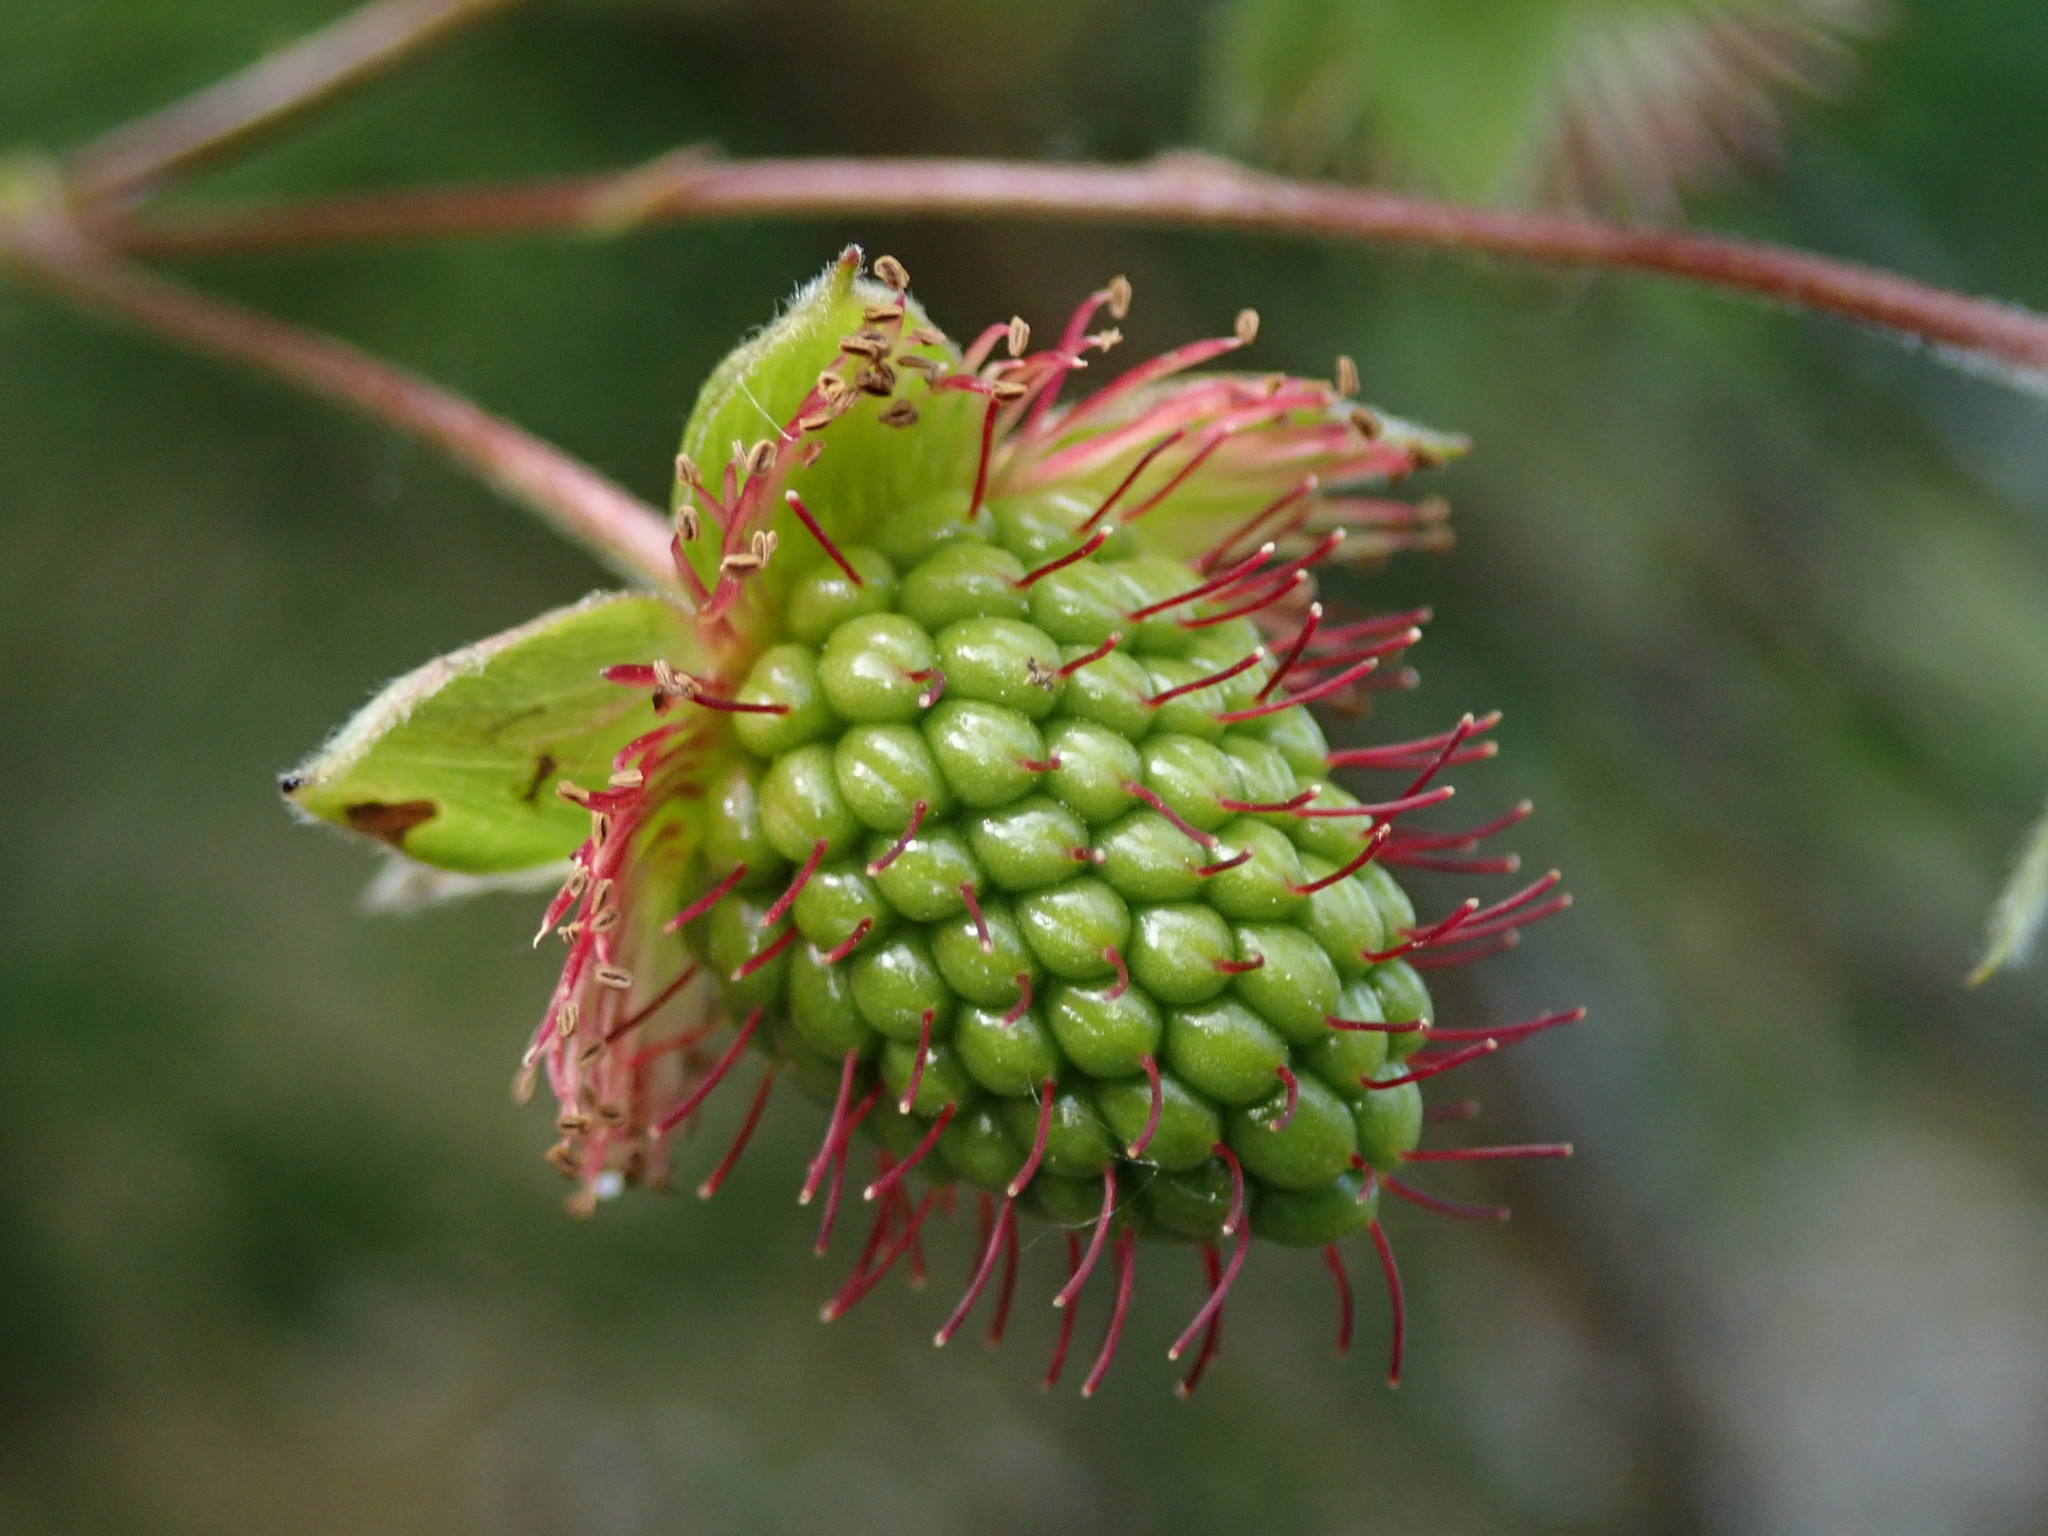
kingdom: Plantae
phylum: Tracheophyta
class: Magnoliopsida
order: Rosales
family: Rosaceae
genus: Rubus
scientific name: Rubus spectabilis
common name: Salmonberry
